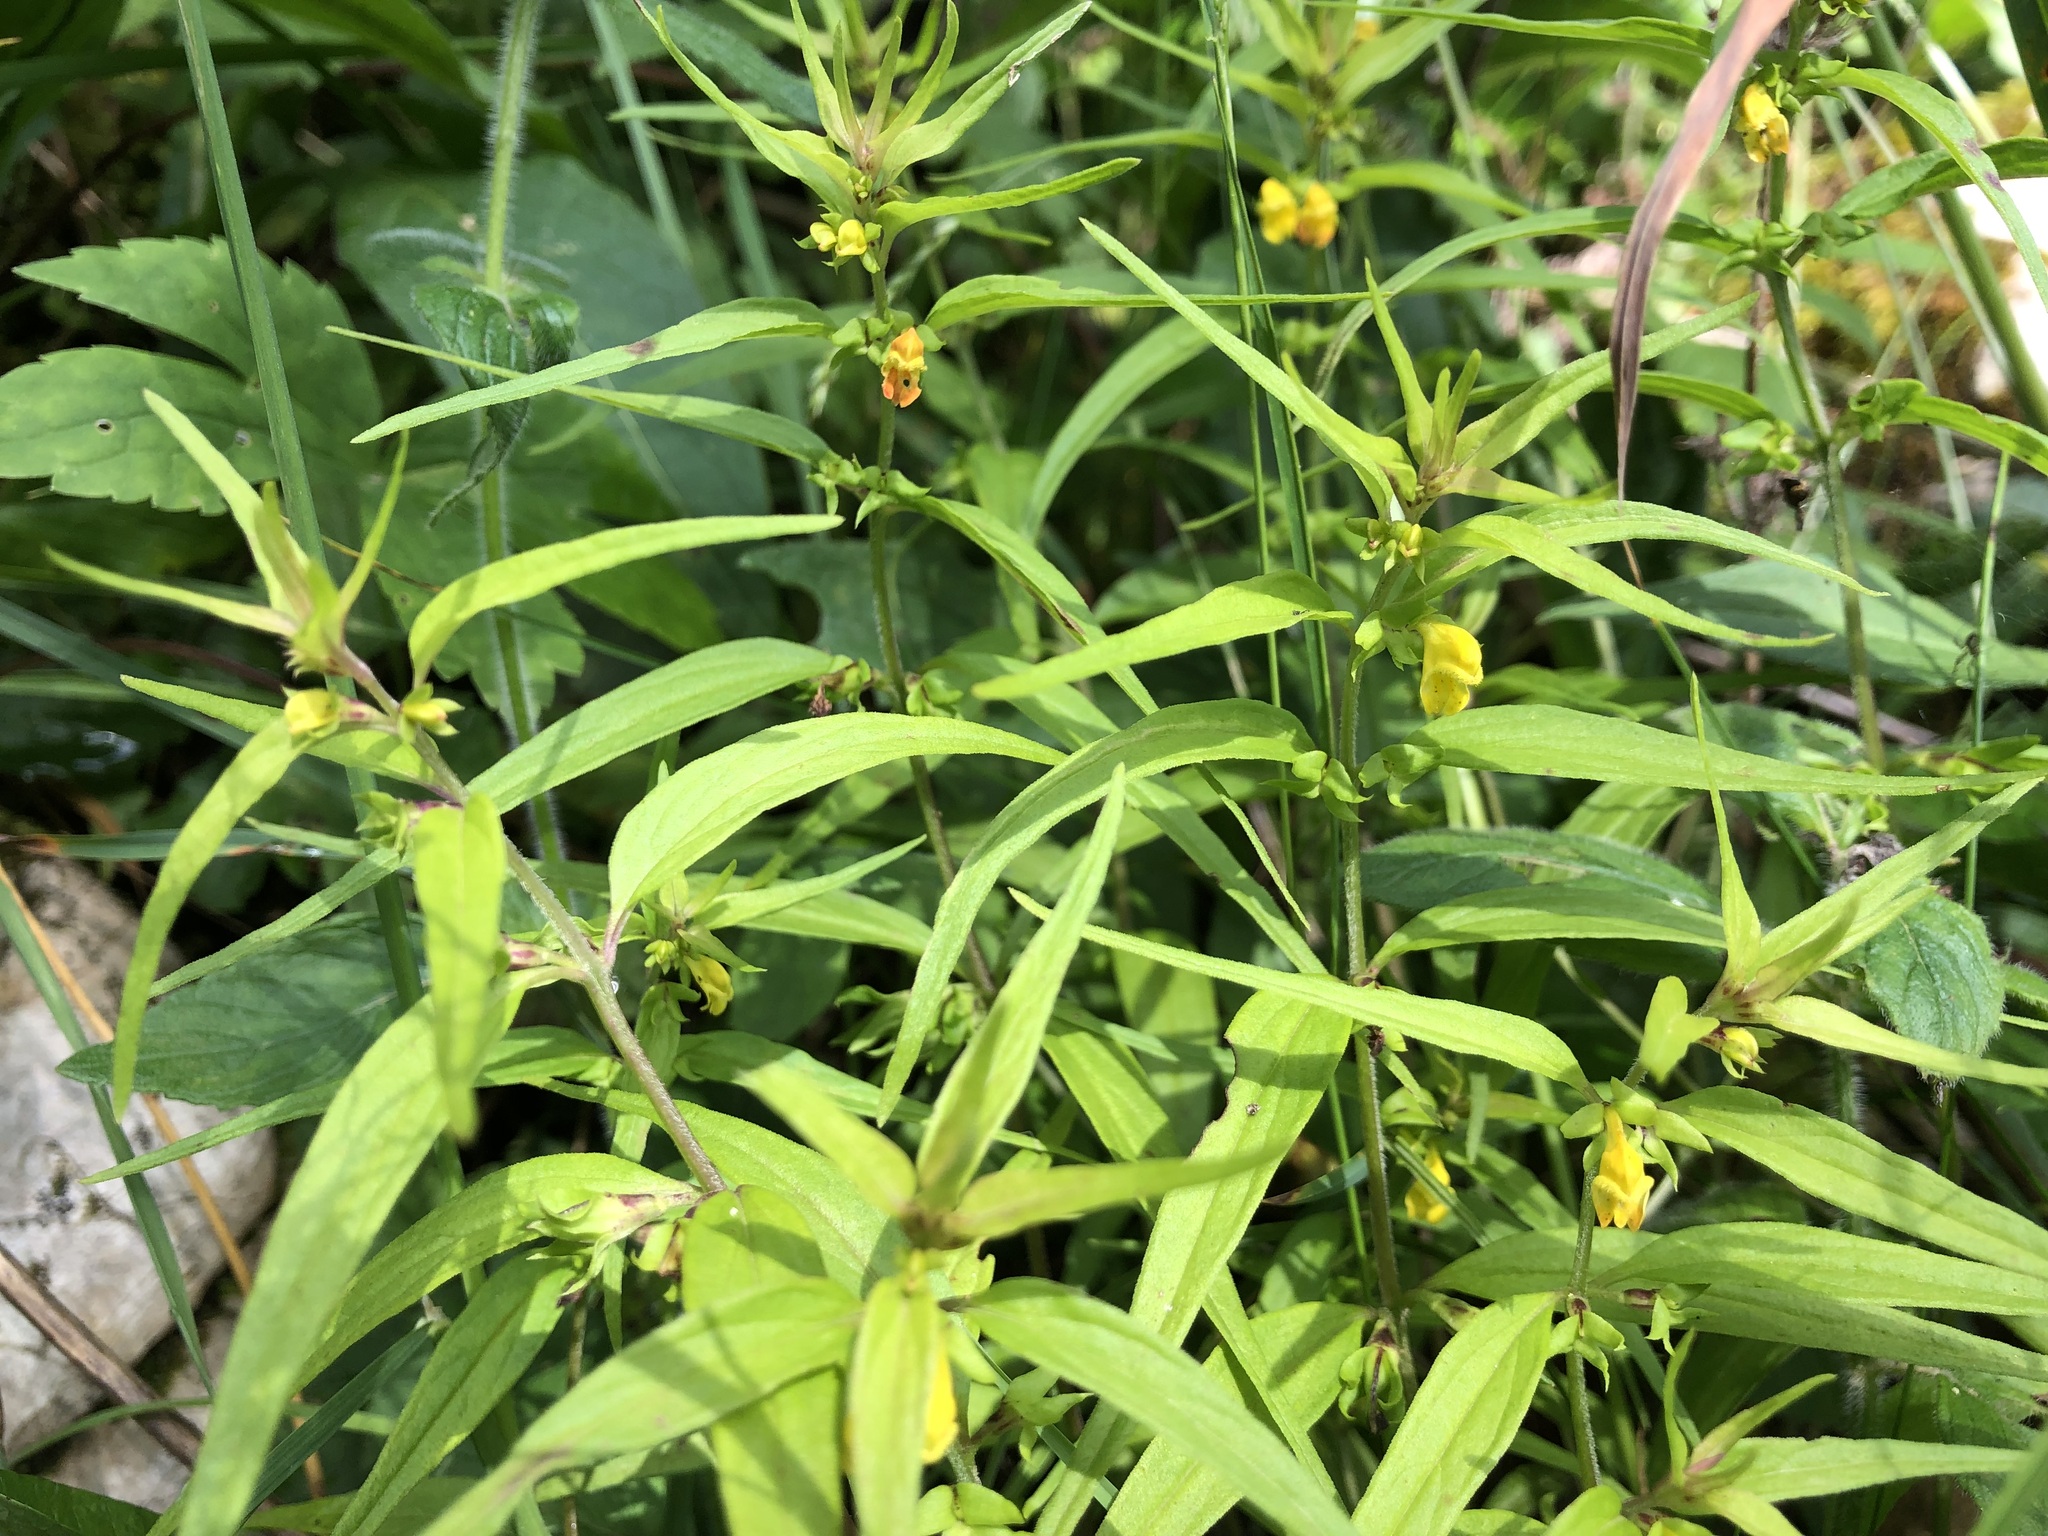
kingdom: Plantae
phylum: Tracheophyta
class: Magnoliopsida
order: Lamiales
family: Orobanchaceae
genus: Melampyrum
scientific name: Melampyrum sylvaticum
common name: Small cow-wheat
